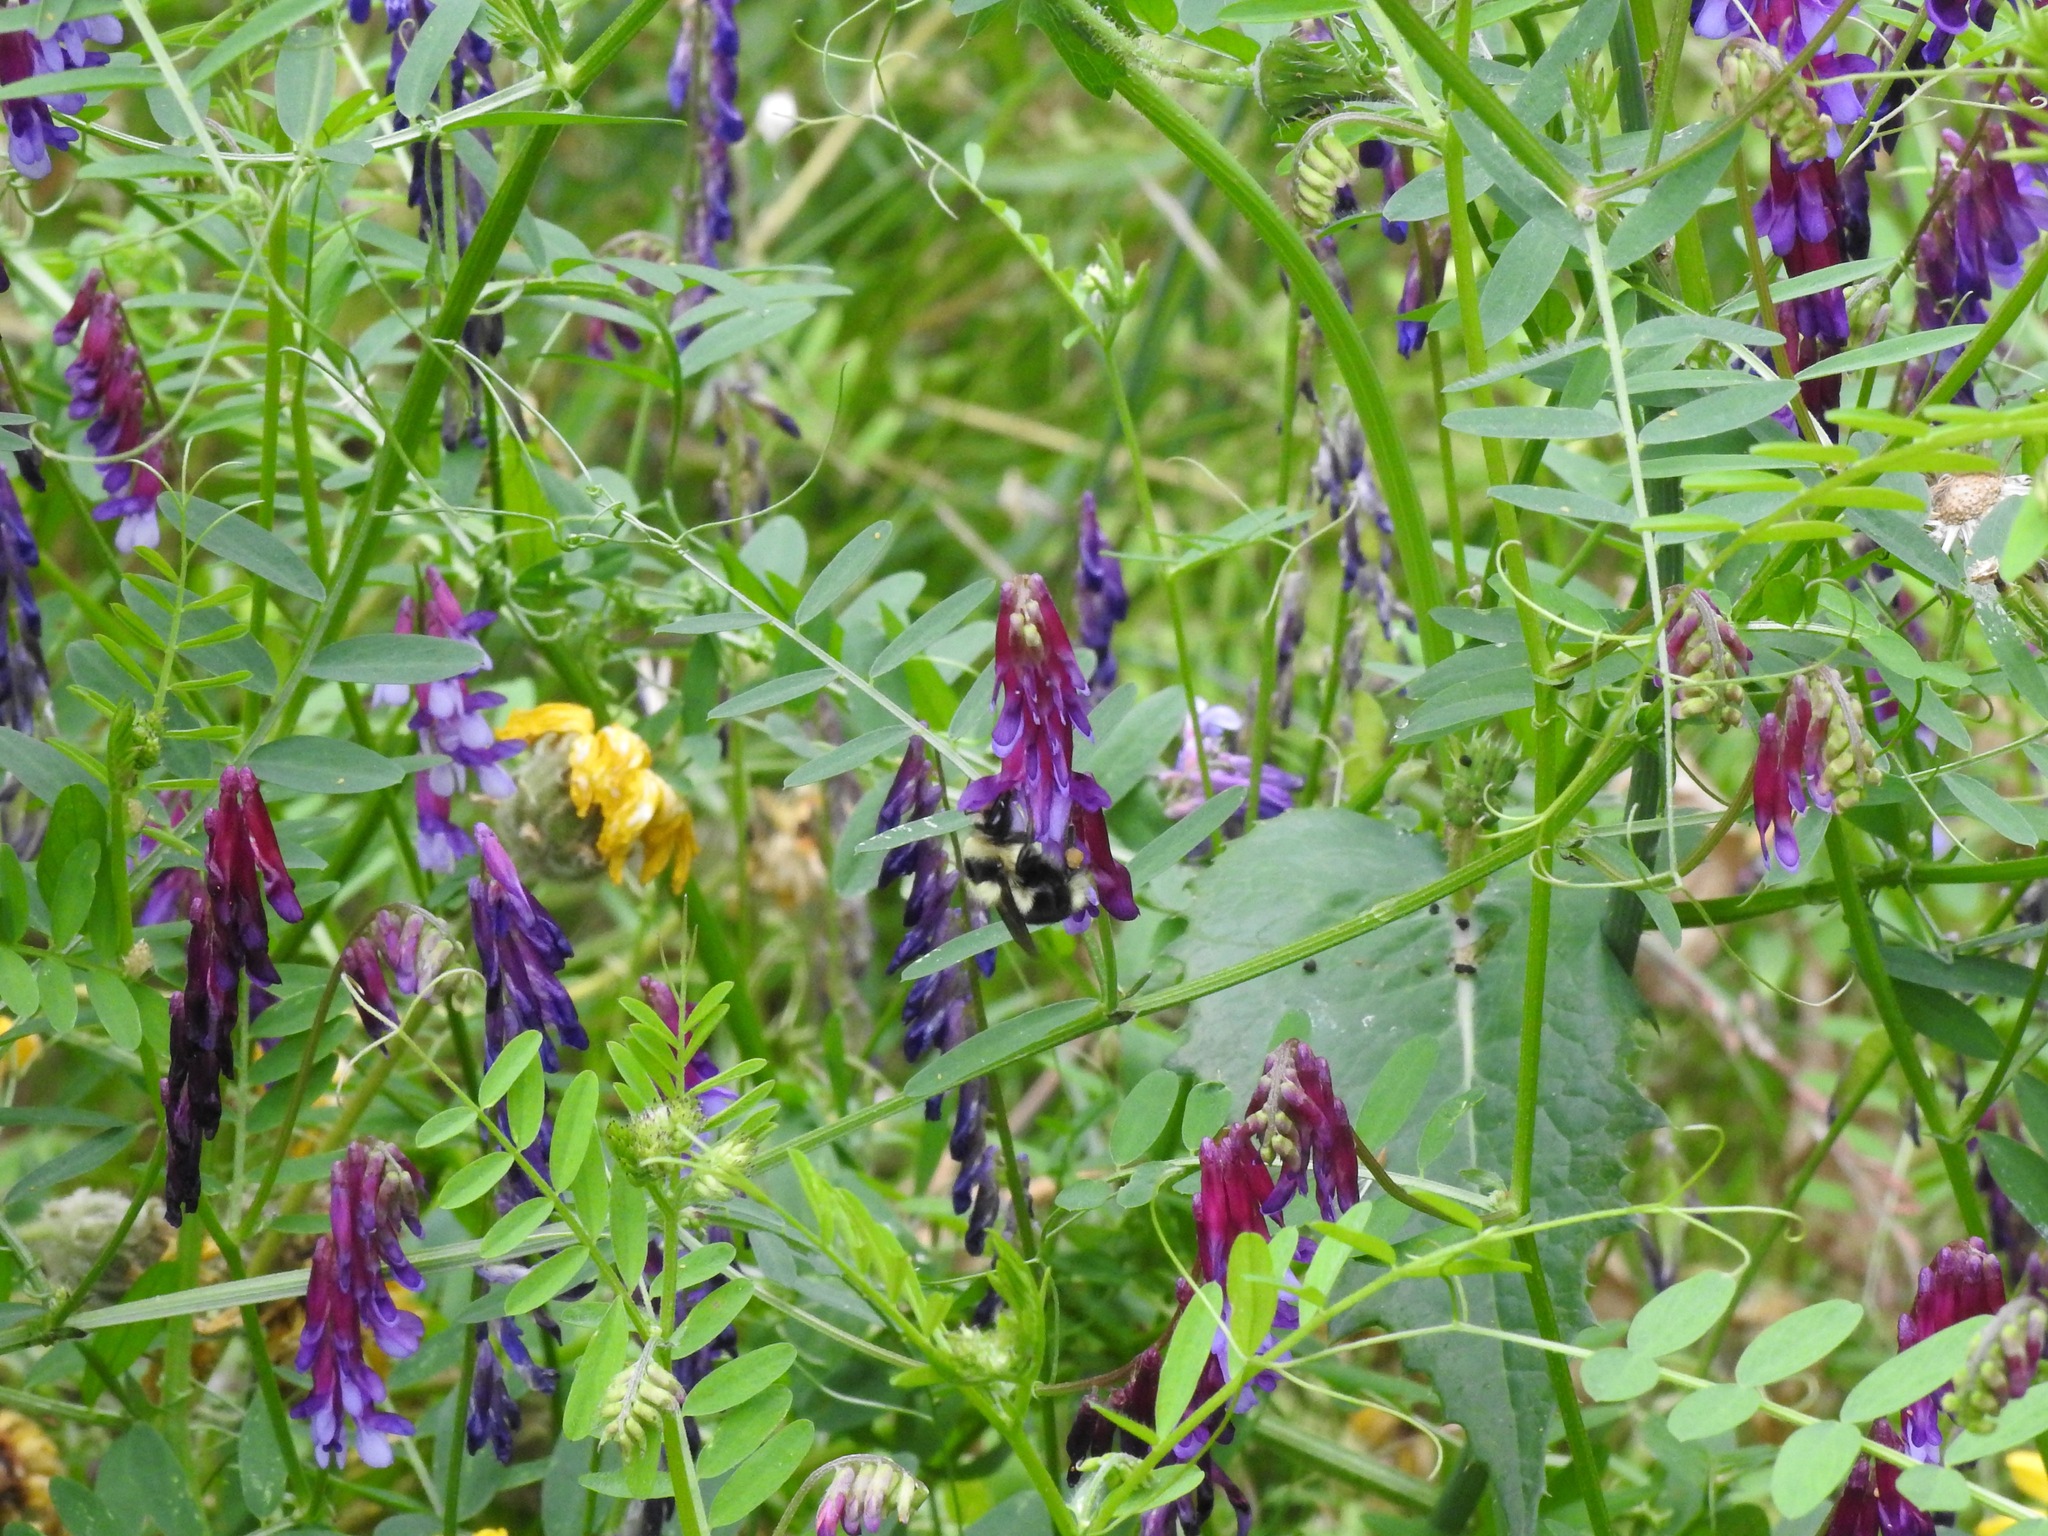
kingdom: Animalia
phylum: Arthropoda
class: Insecta
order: Hymenoptera
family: Apidae
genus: Bombus
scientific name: Bombus melanopygus
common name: Black tail bumble bee
